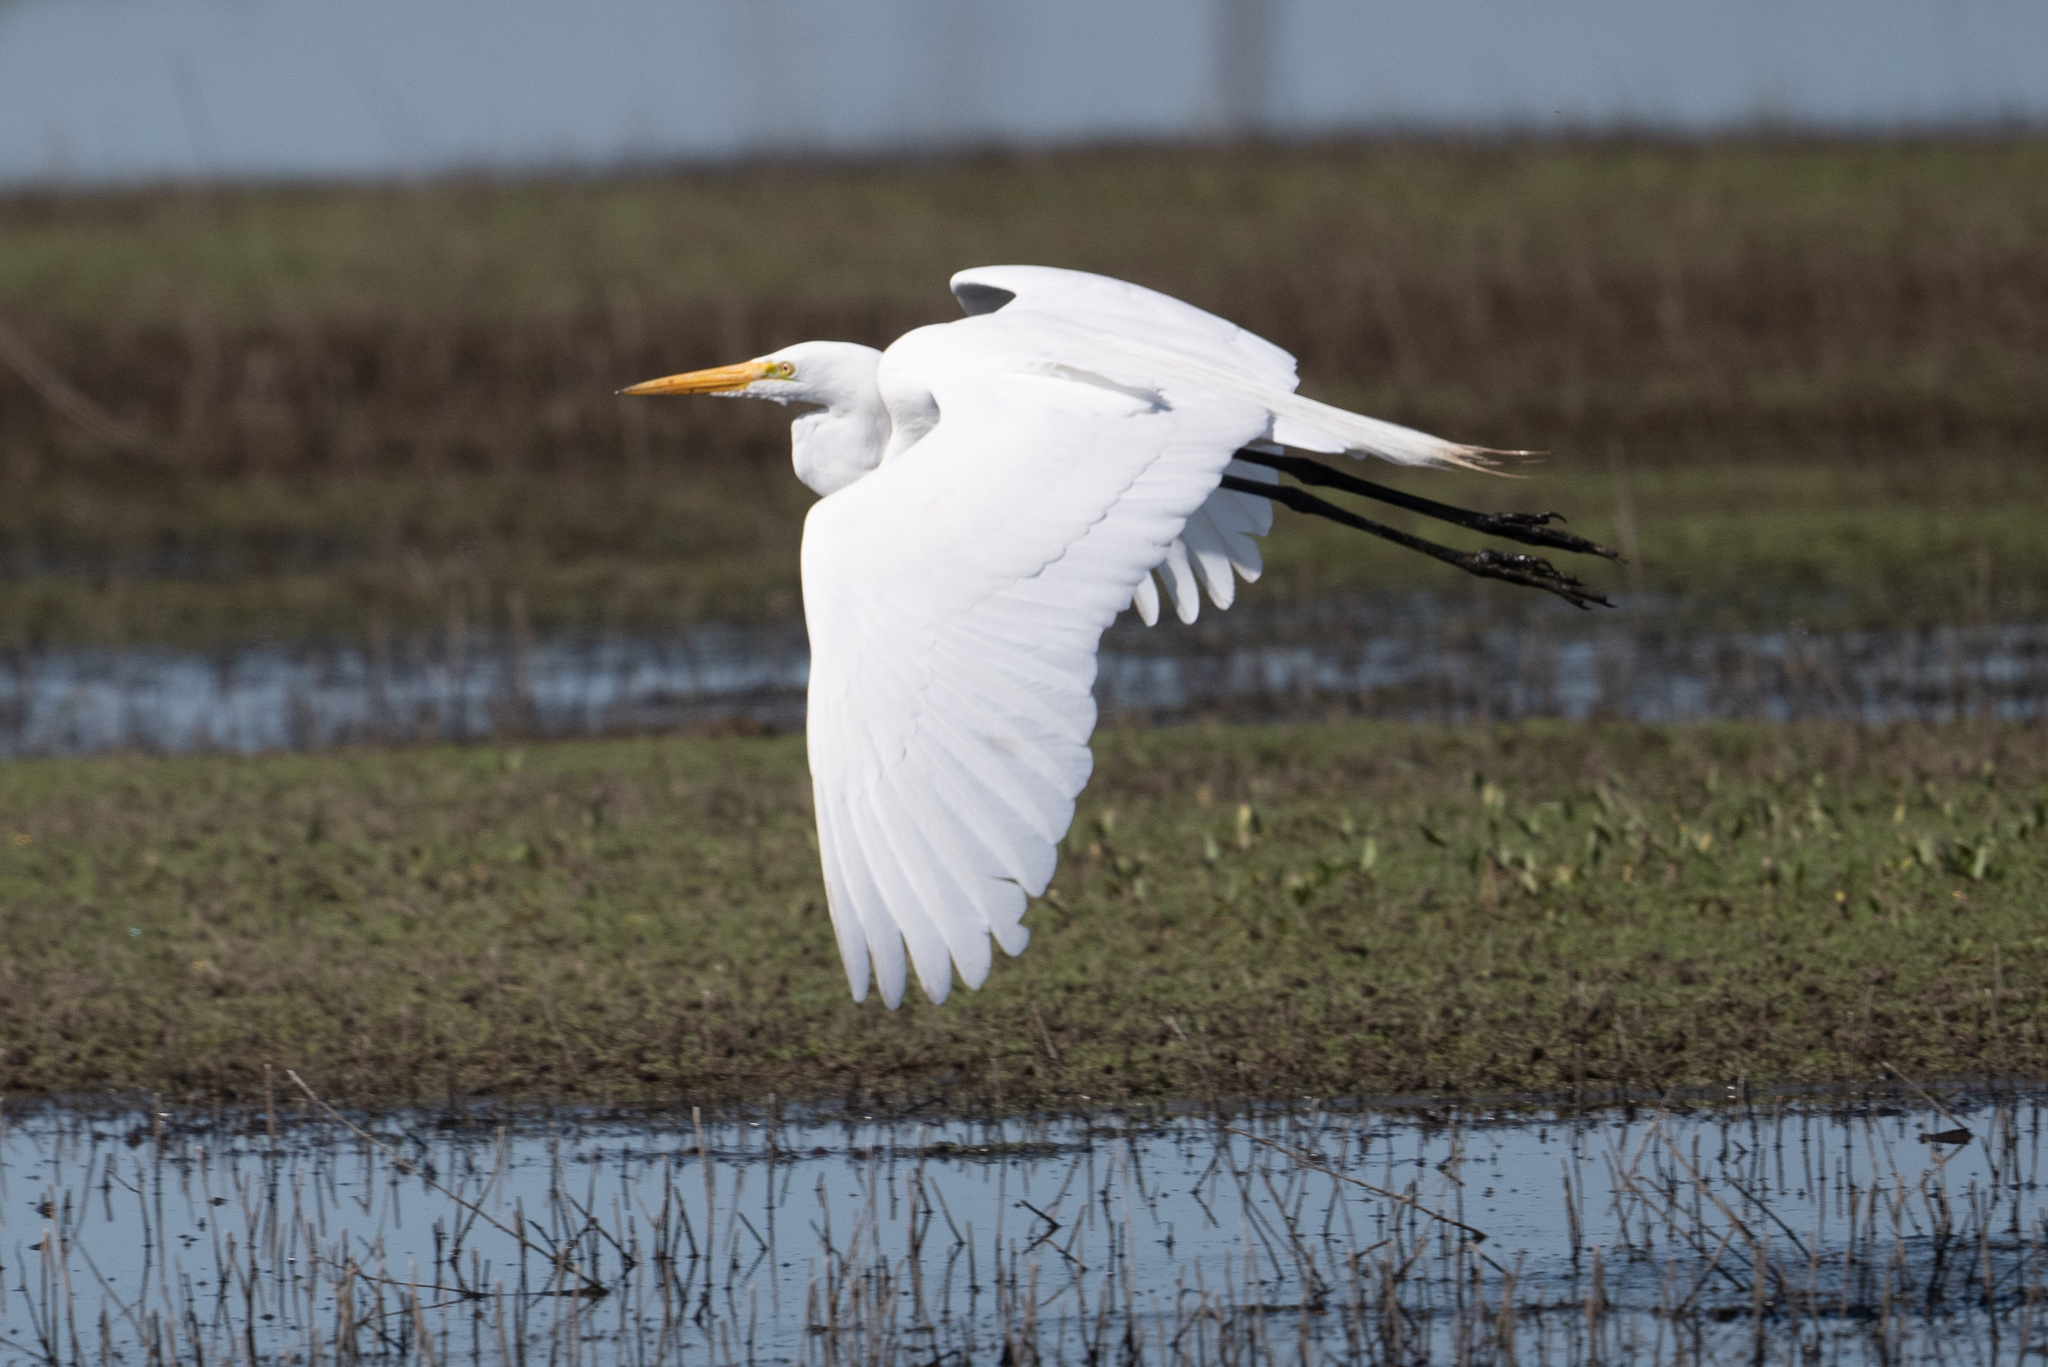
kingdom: Animalia
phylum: Chordata
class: Aves
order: Pelecaniformes
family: Ardeidae
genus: Ardea
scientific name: Ardea alba
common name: Great egret
